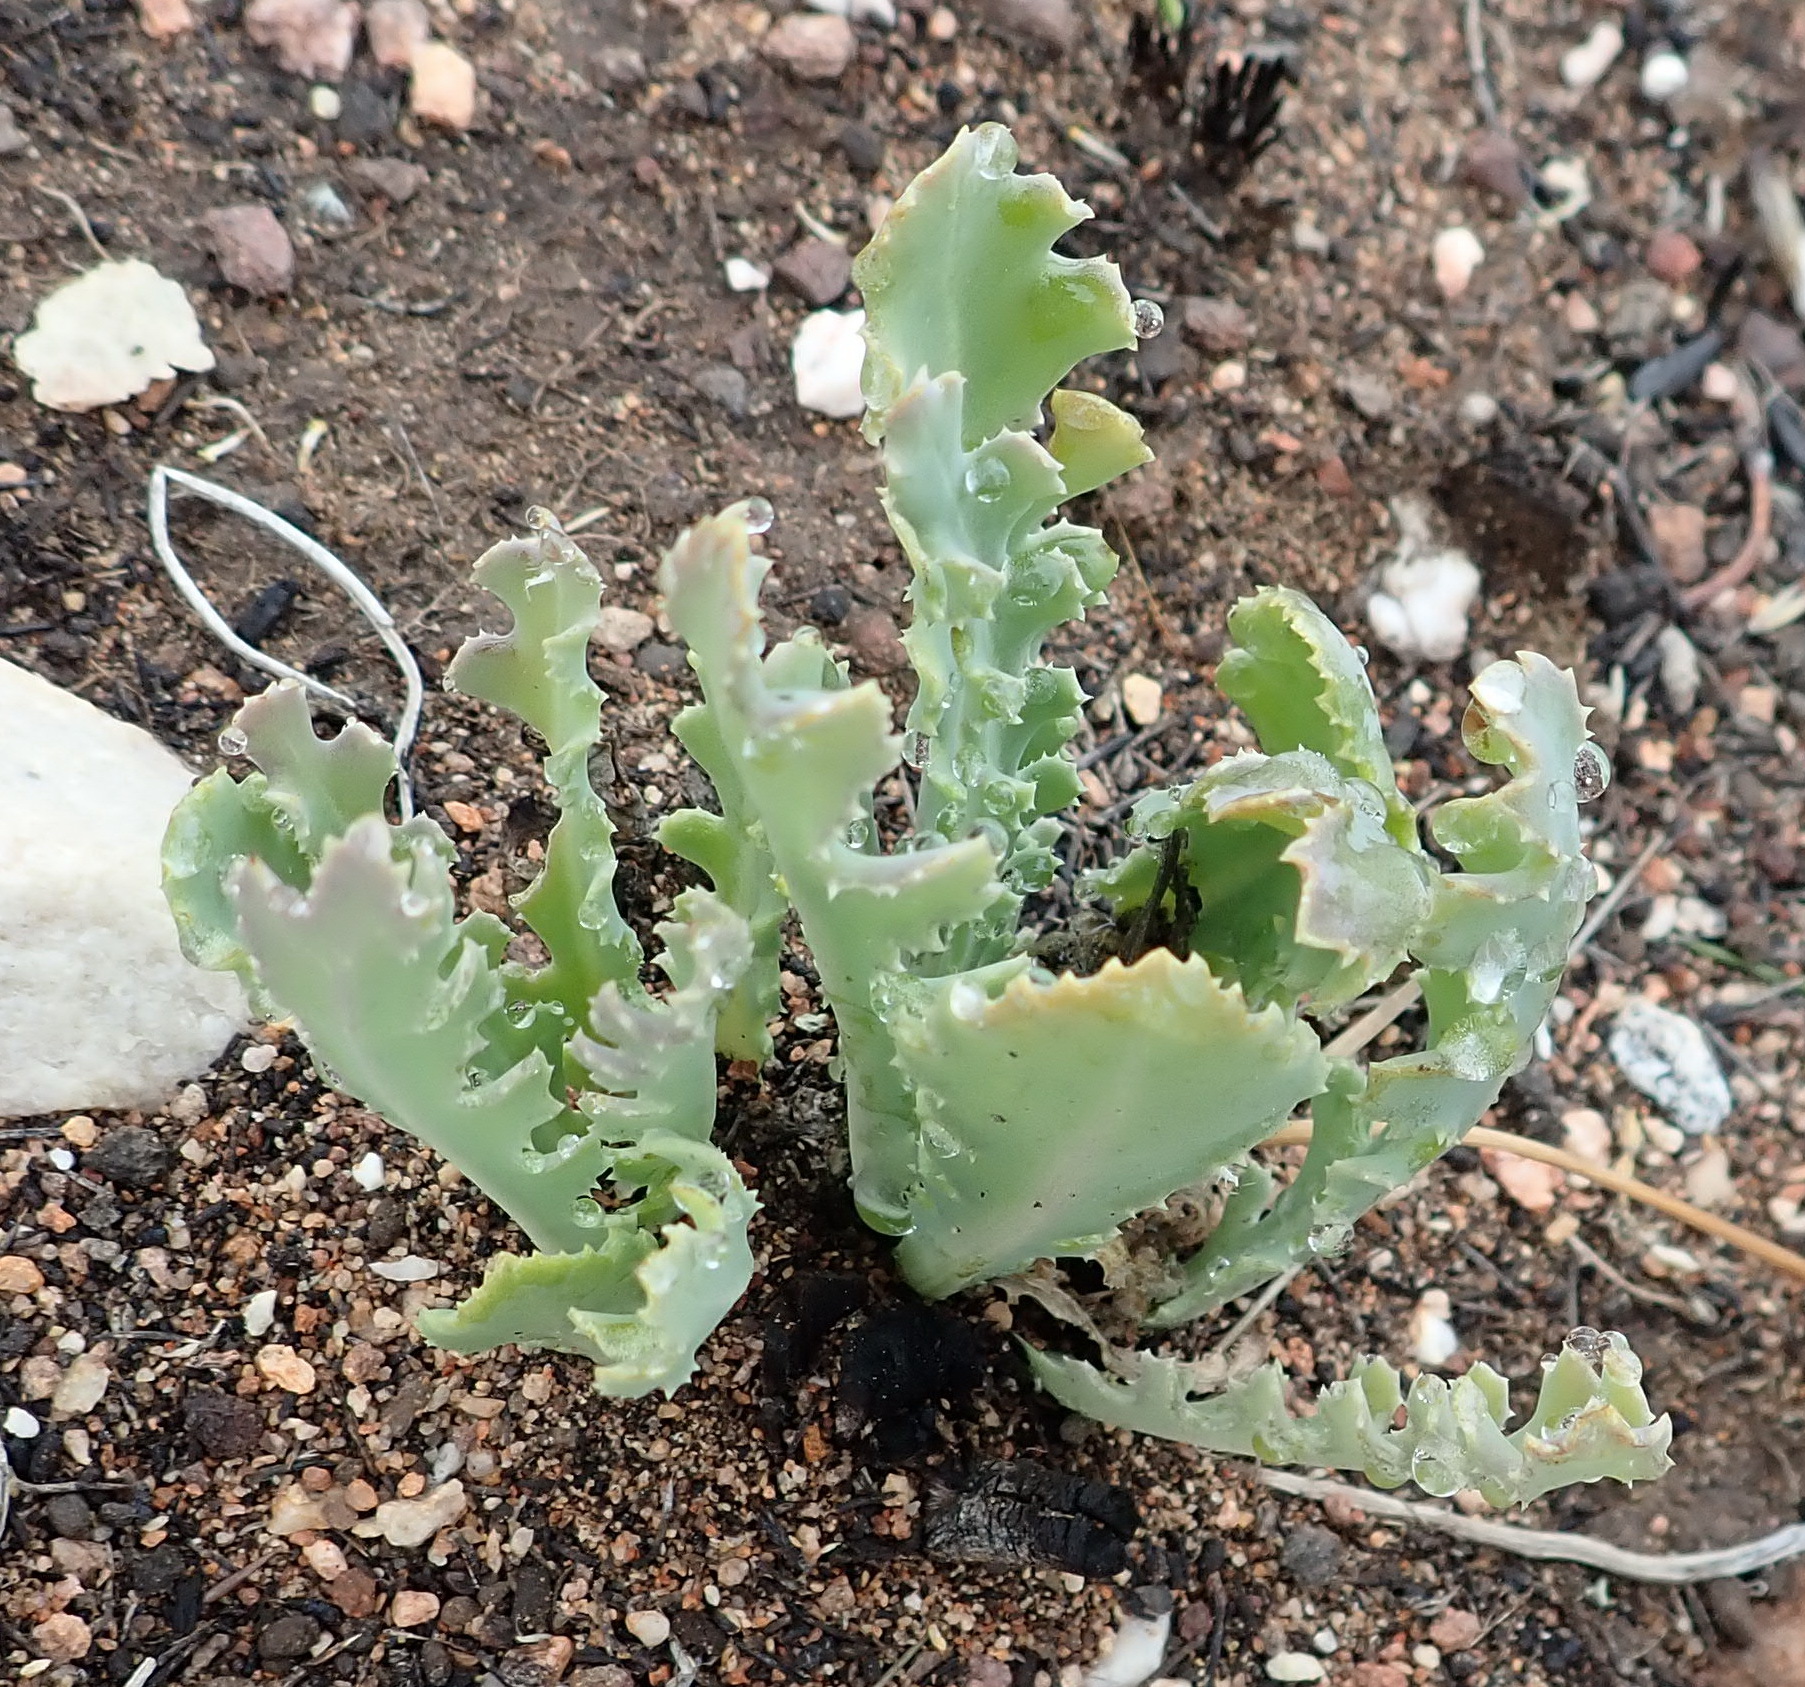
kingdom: Plantae
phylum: Tracheophyta
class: Magnoliopsida
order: Asterales
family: Asteraceae
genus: Othonna
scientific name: Othonna auriculifolia
